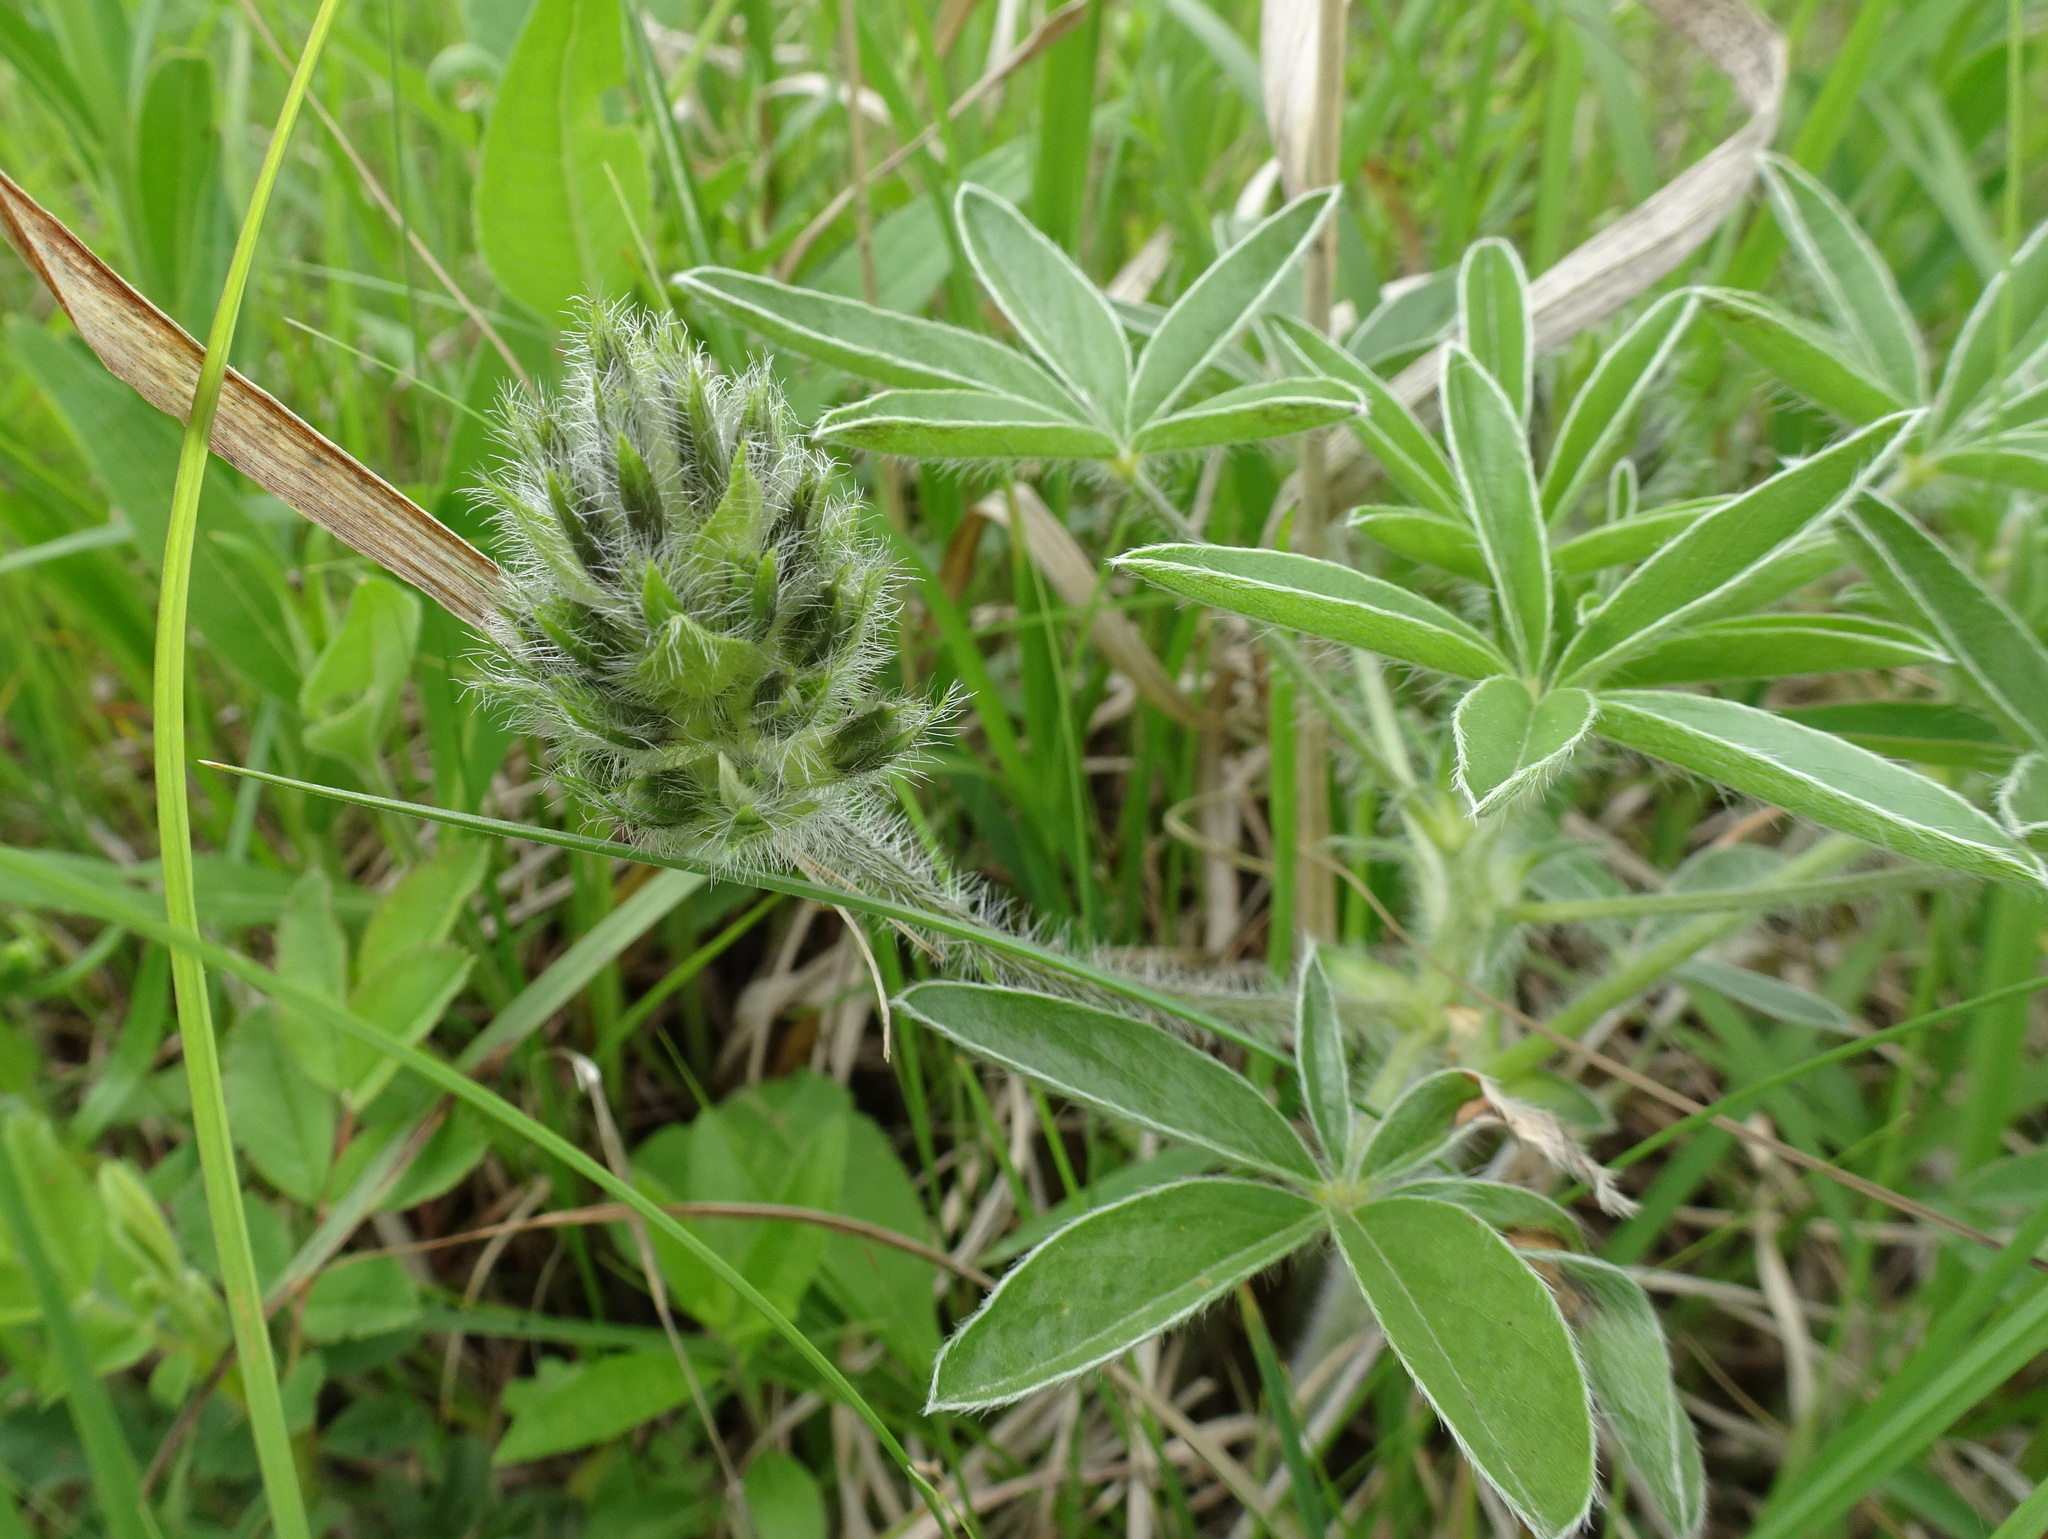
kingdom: Plantae
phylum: Tracheophyta
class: Magnoliopsida
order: Fabales
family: Fabaceae
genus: Pediomelum
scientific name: Pediomelum esculentum
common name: Indian-turnip
